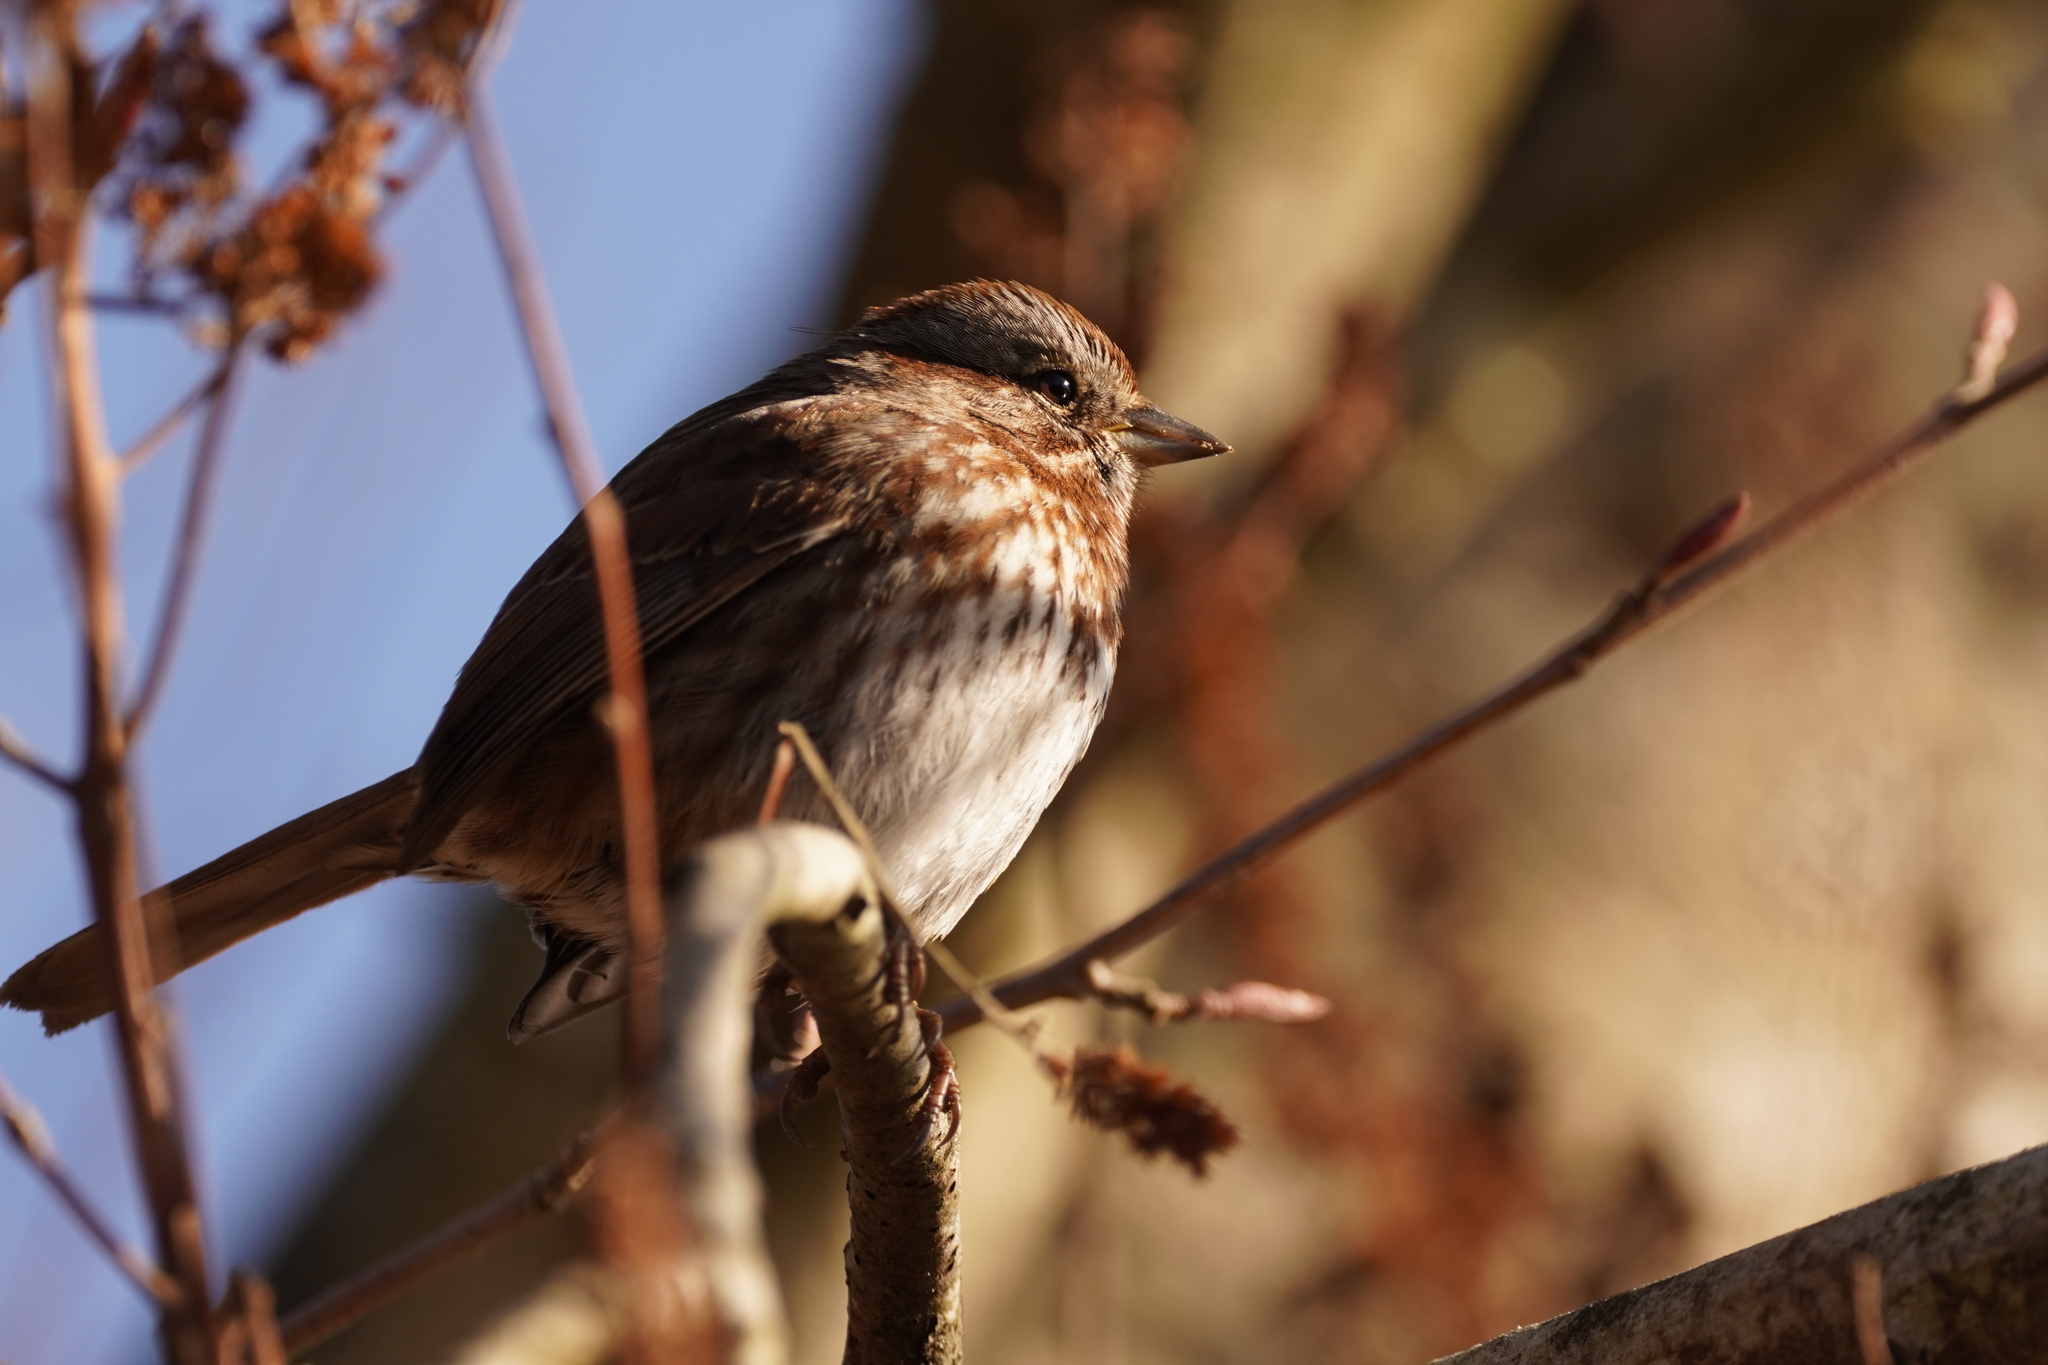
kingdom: Animalia
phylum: Chordata
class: Aves
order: Passeriformes
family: Passerellidae
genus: Melospiza
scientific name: Melospiza melodia
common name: Song sparrow
